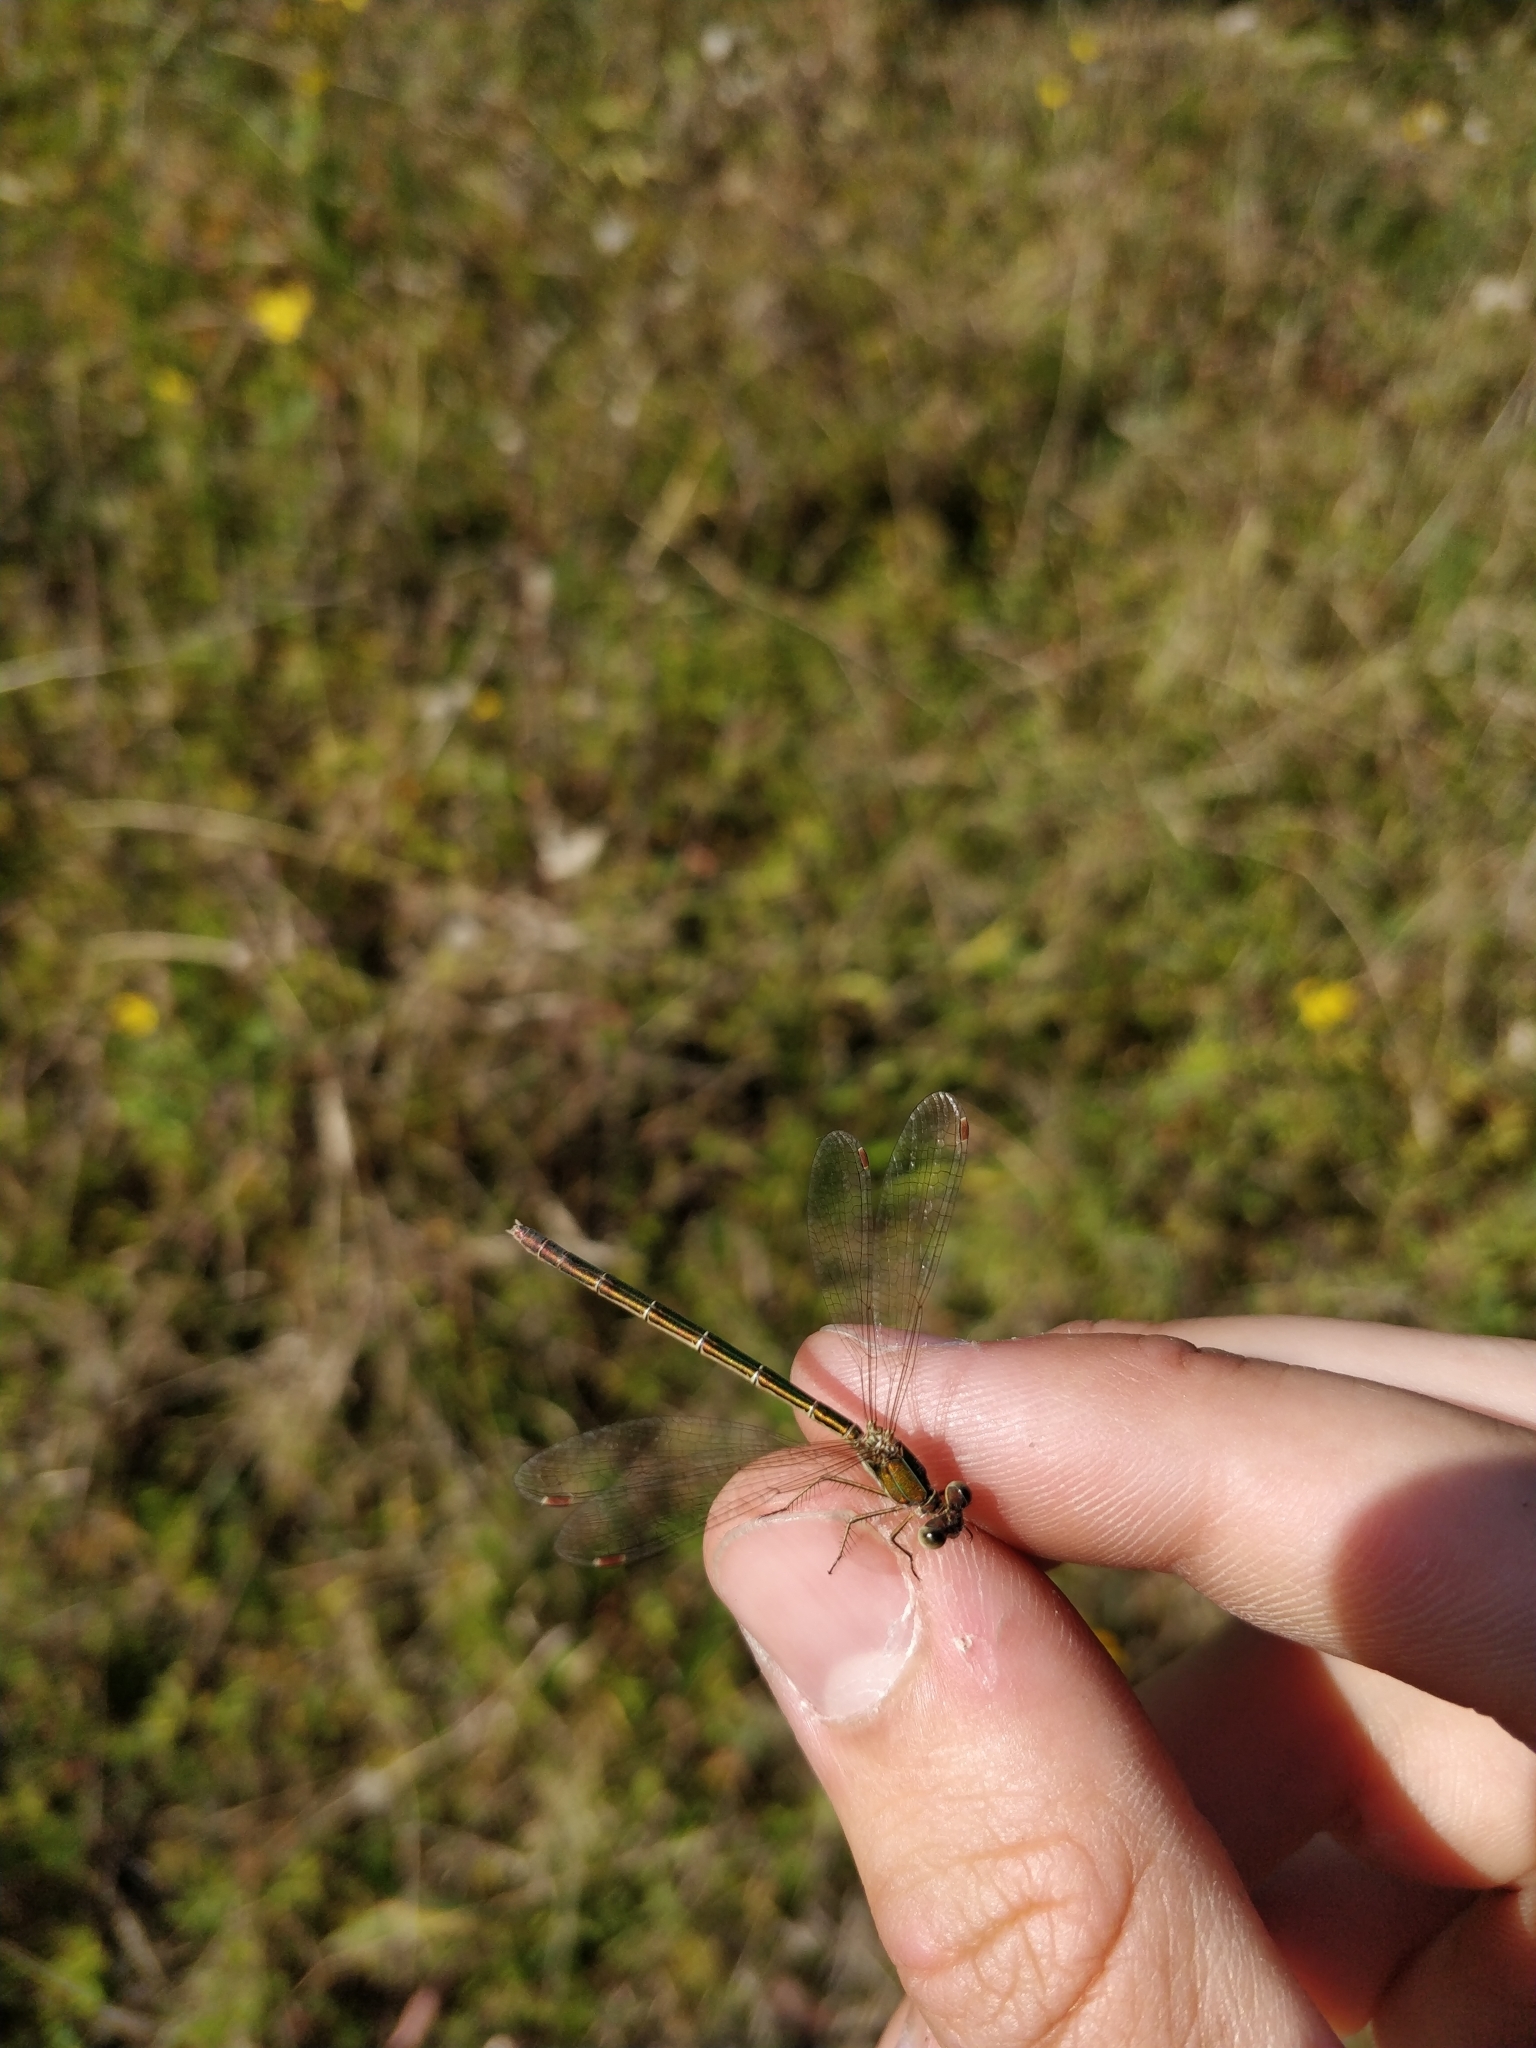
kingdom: Animalia
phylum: Arthropoda
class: Insecta
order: Odonata
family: Lestidae
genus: Lestes
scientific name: Lestes virens
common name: Small emerald spreadwing
